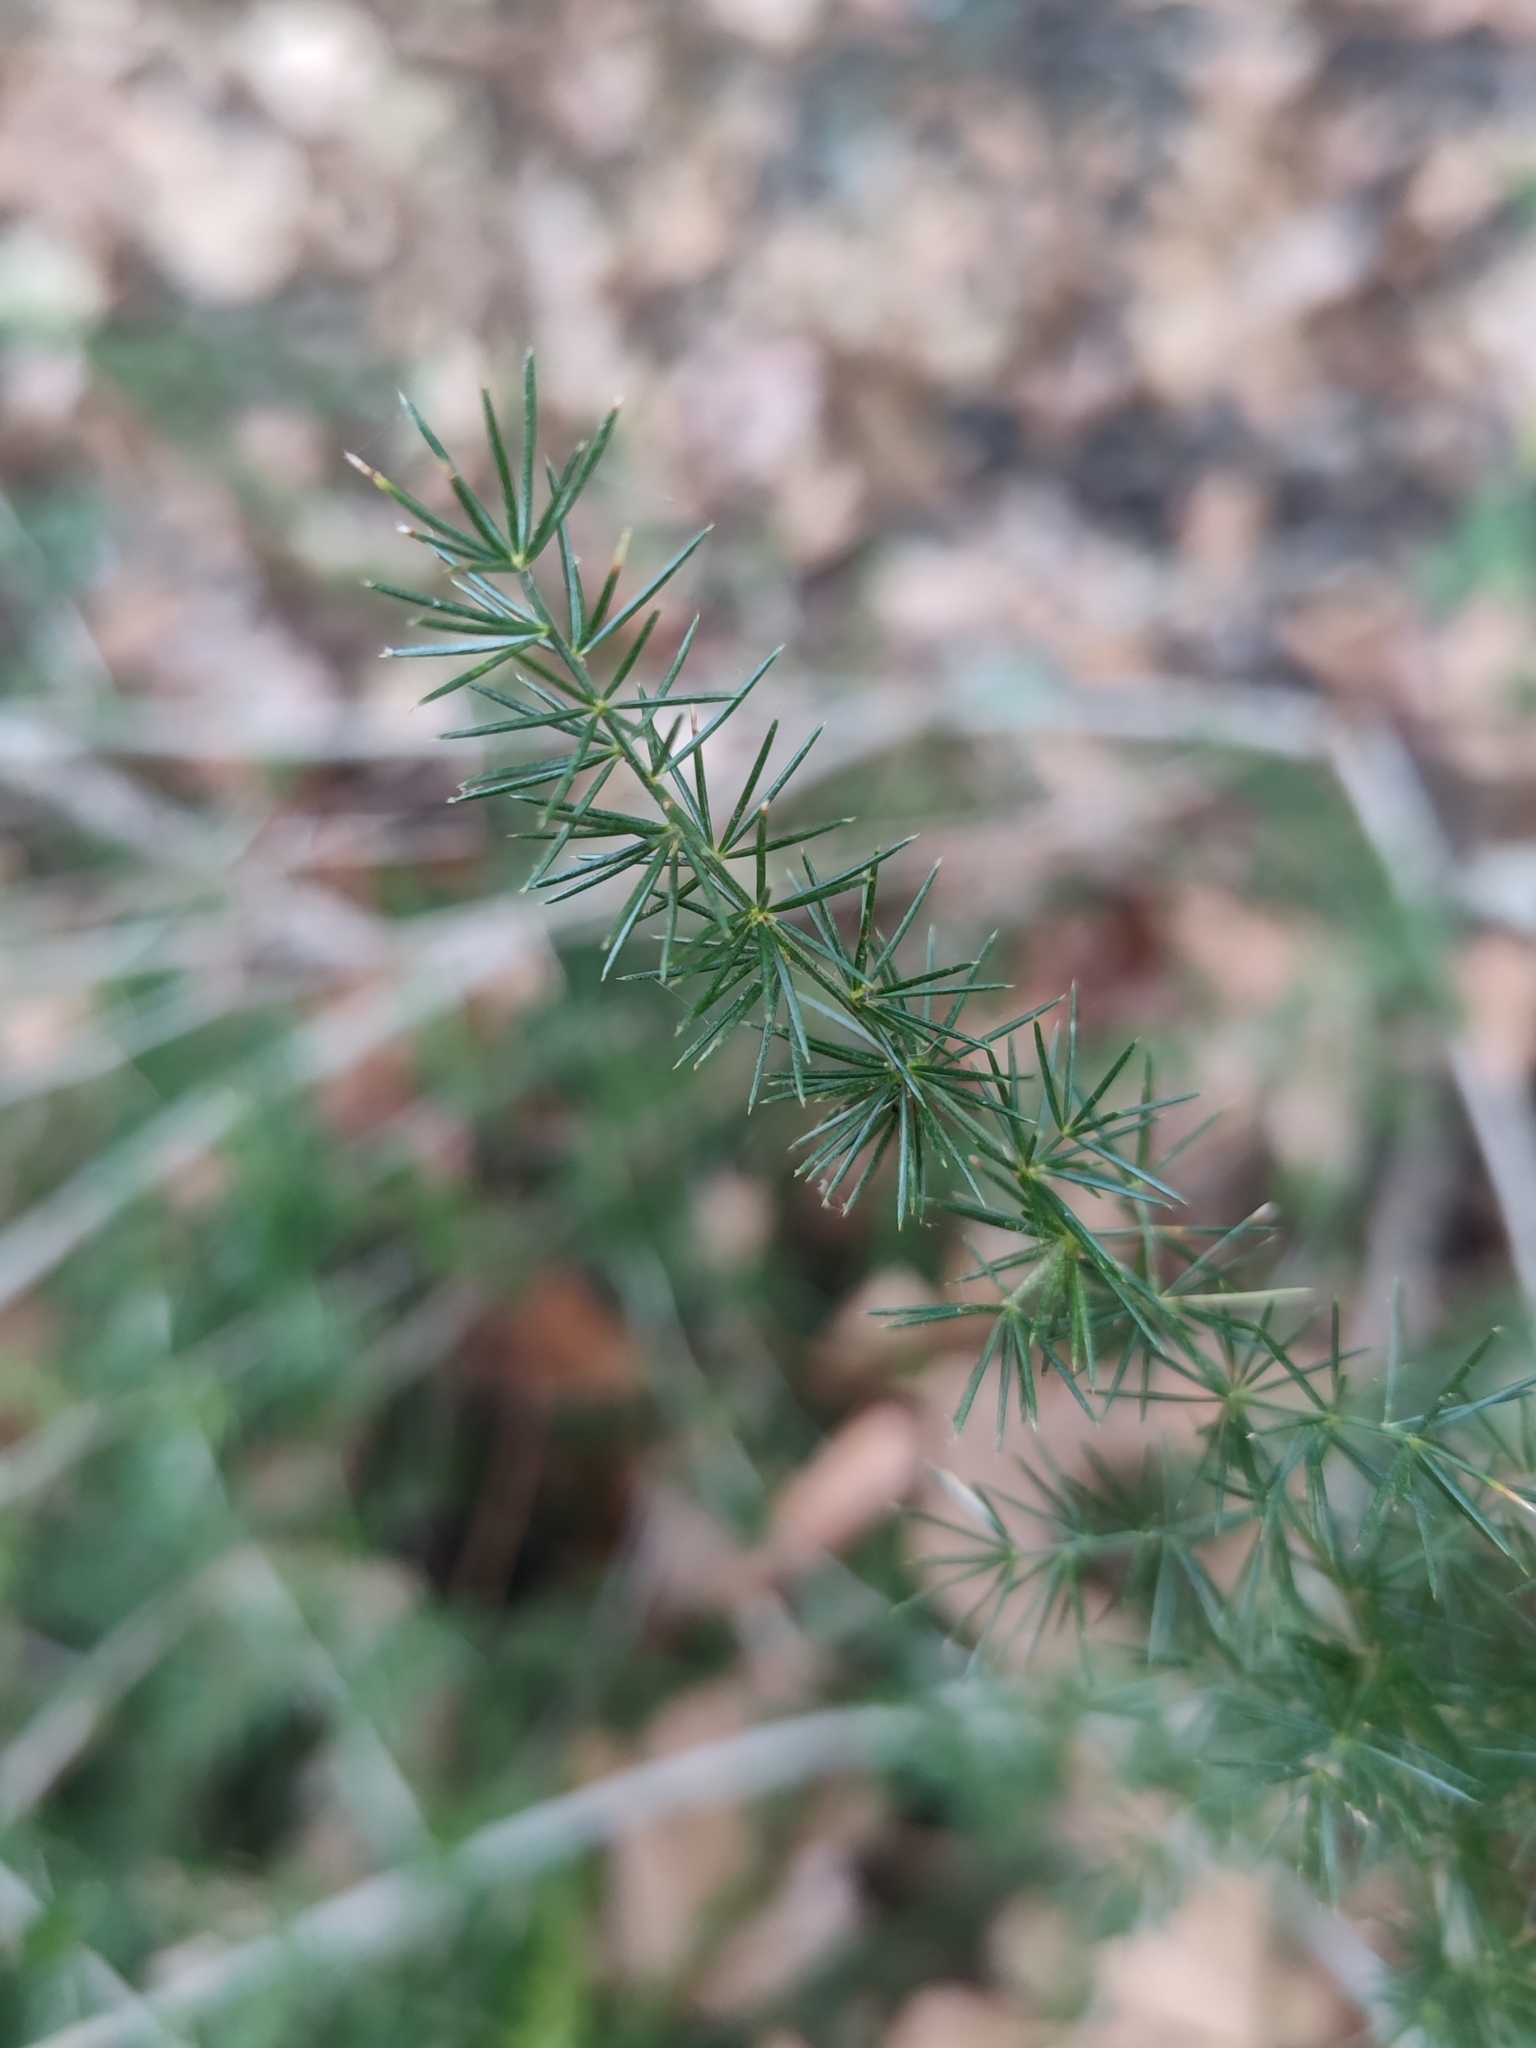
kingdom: Plantae
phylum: Tracheophyta
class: Liliopsida
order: Asparagales
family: Asparagaceae
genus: Asparagus
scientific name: Asparagus acutifolius
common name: Wild asparagus
